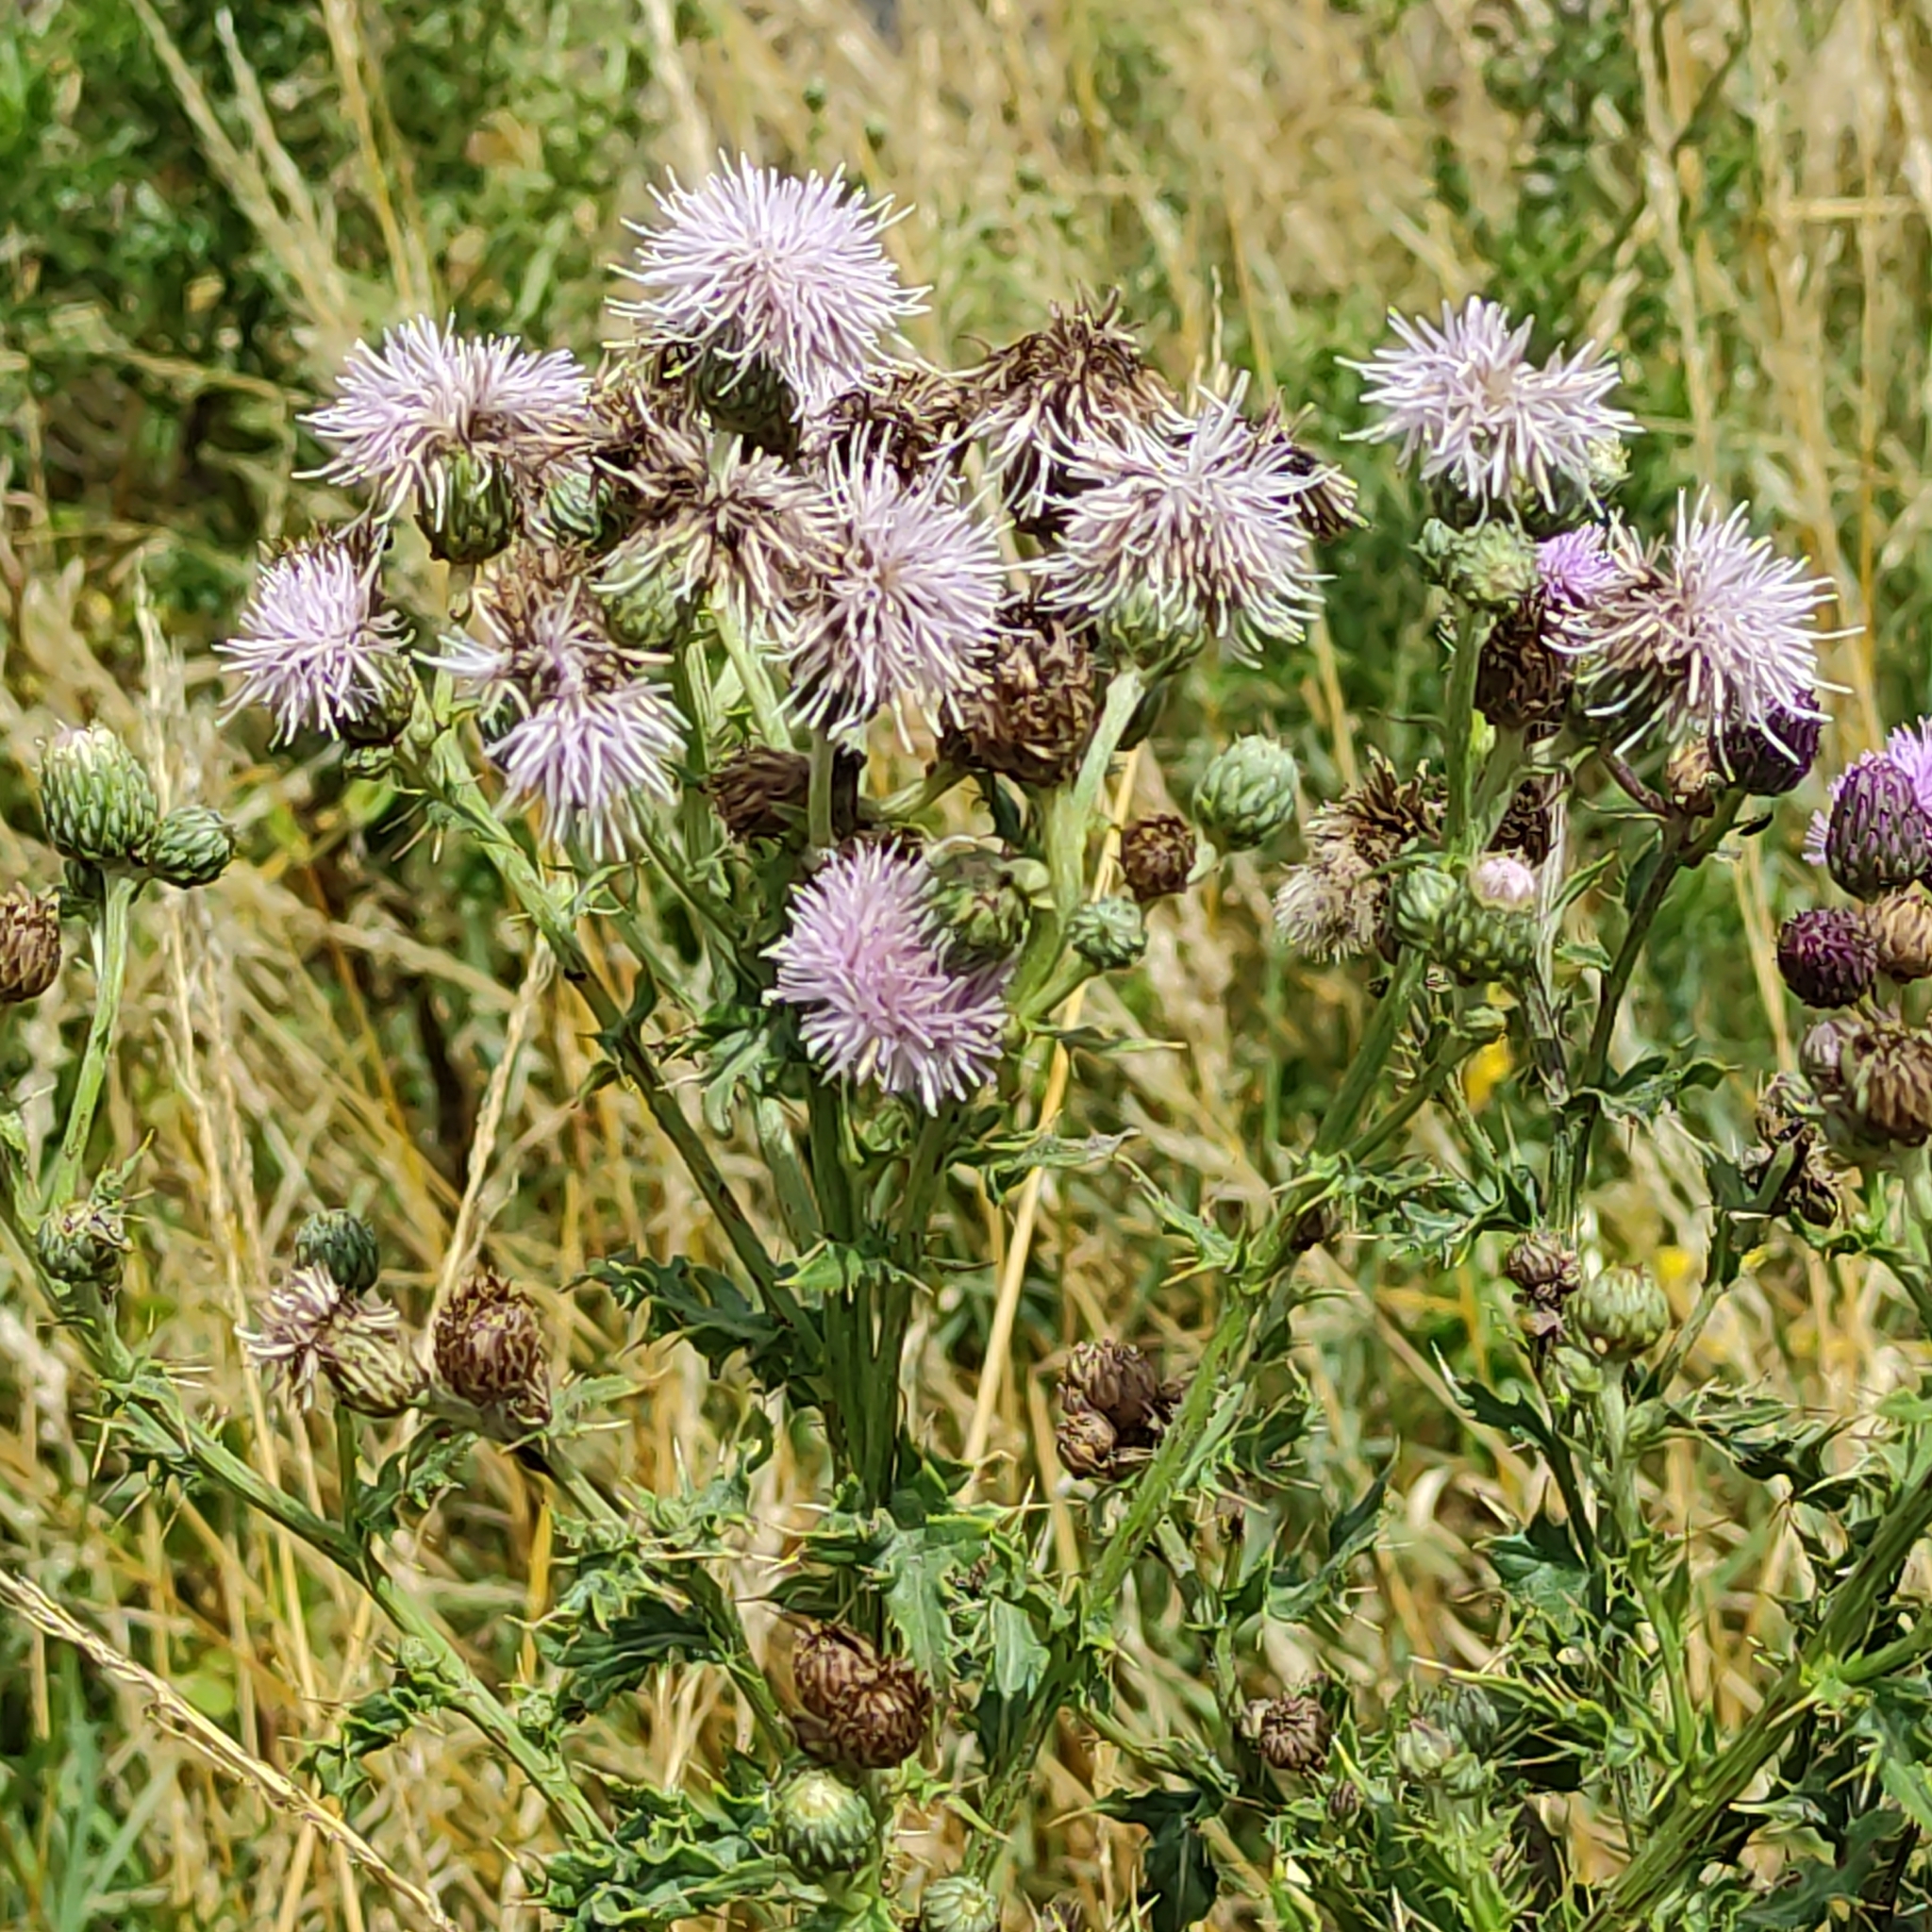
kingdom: Plantae
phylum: Tracheophyta
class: Magnoliopsida
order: Asterales
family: Asteraceae
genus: Cirsium
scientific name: Cirsium arvense
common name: Creeping thistle
